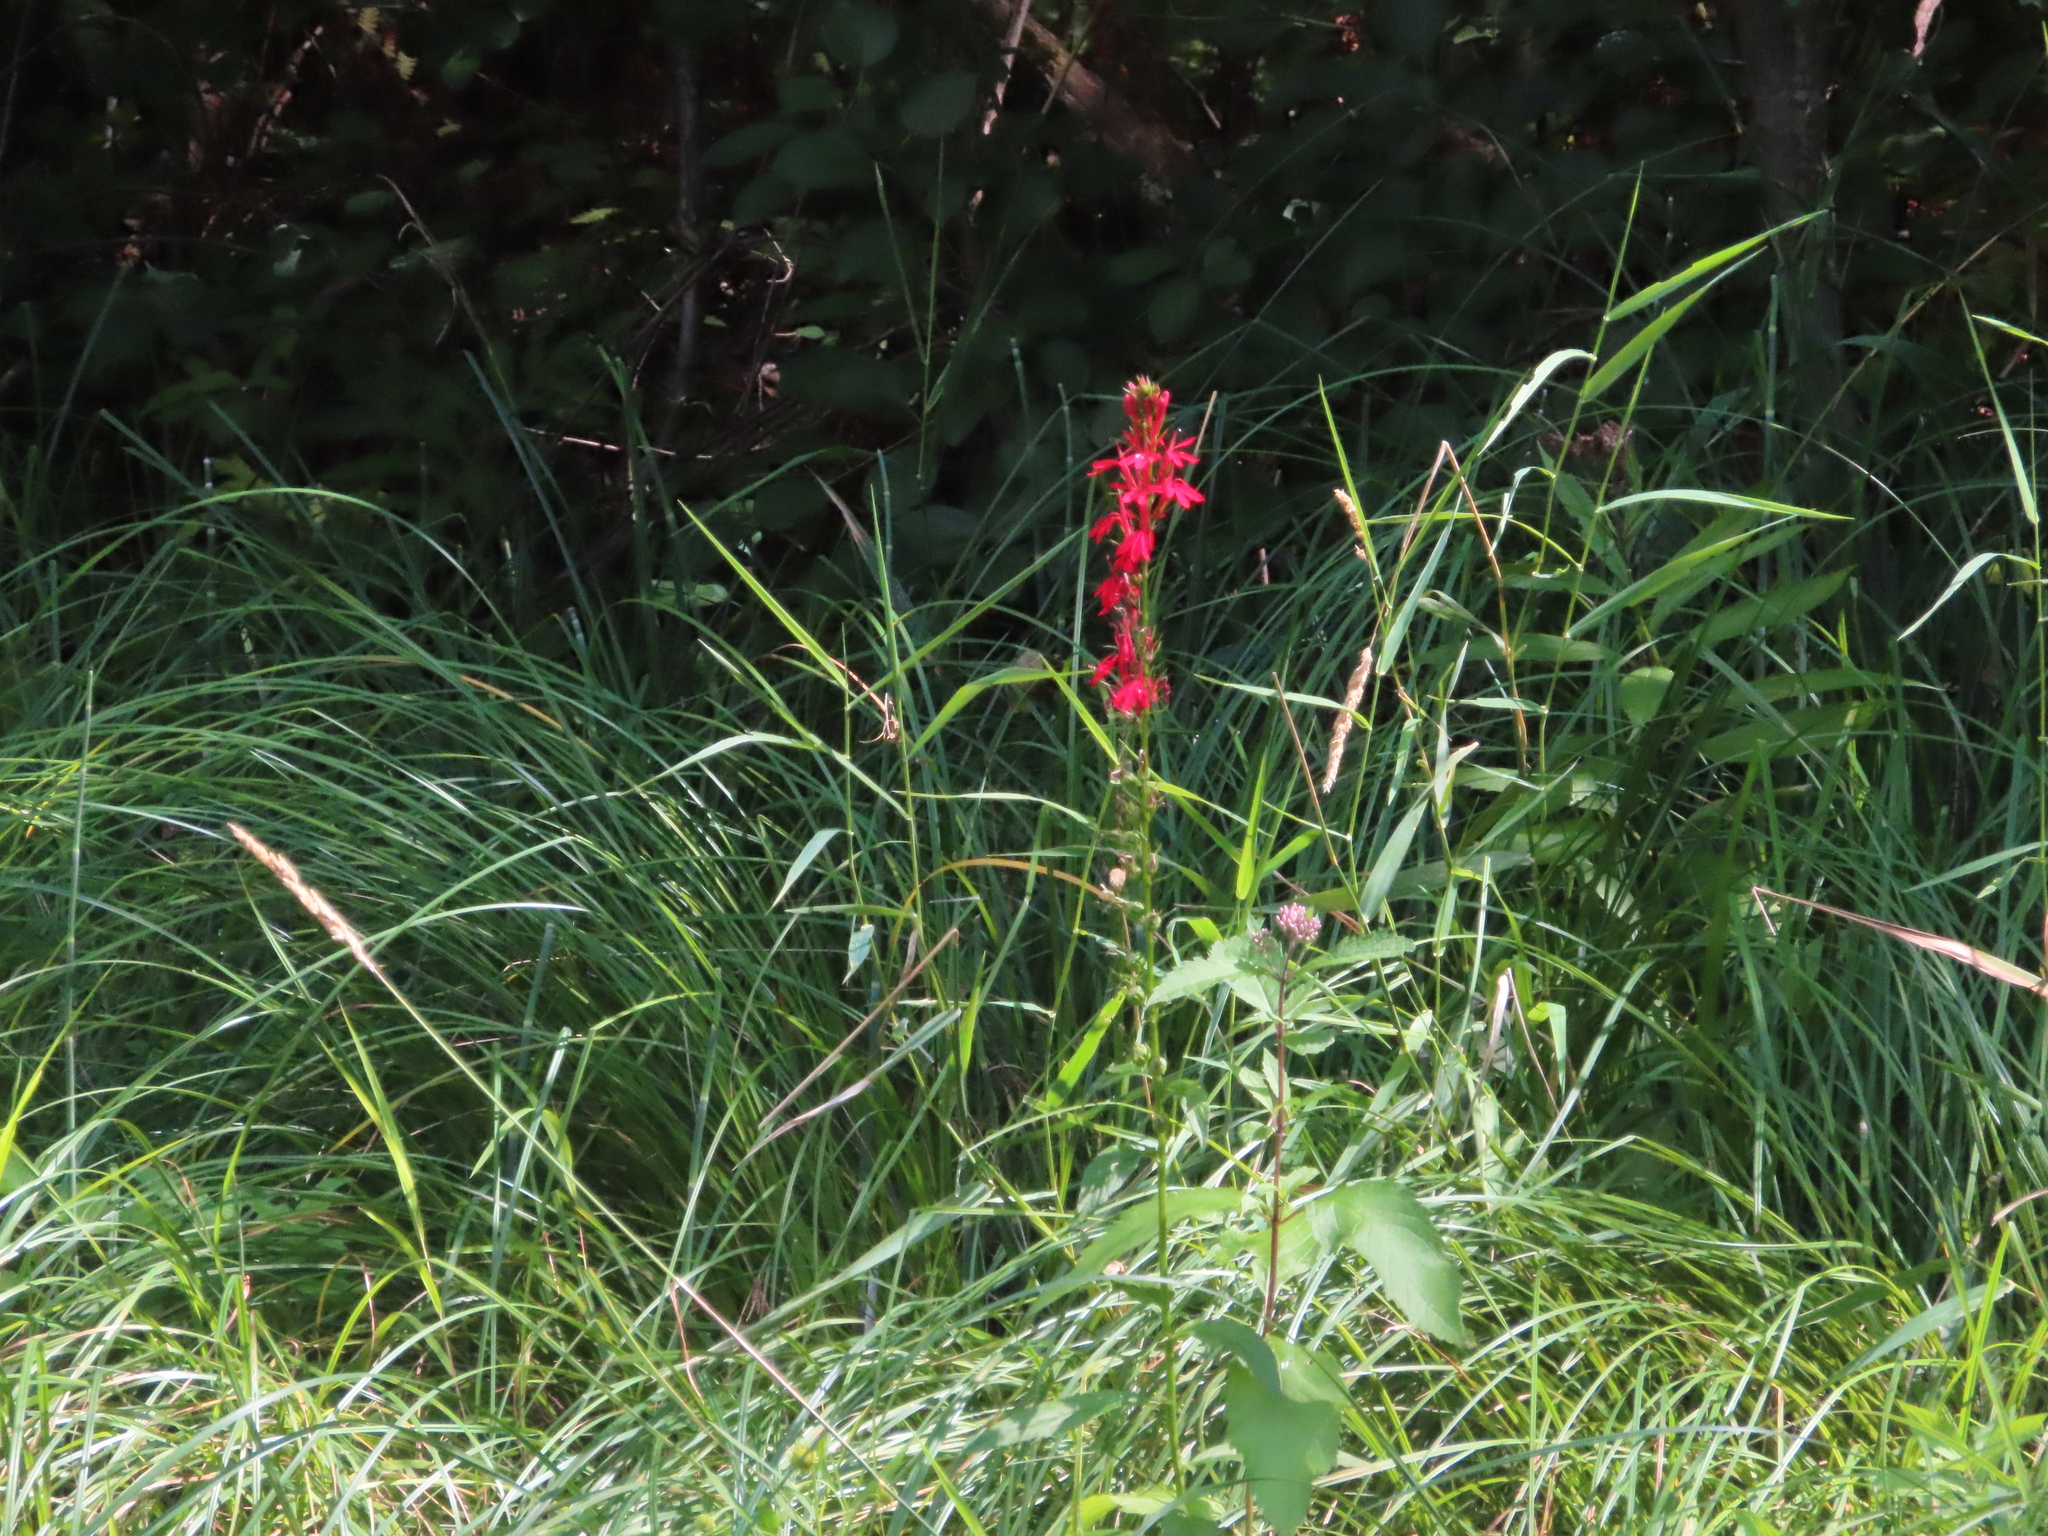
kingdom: Plantae
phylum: Tracheophyta
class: Magnoliopsida
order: Asterales
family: Campanulaceae
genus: Lobelia
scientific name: Lobelia cardinalis
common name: Cardinal flower
